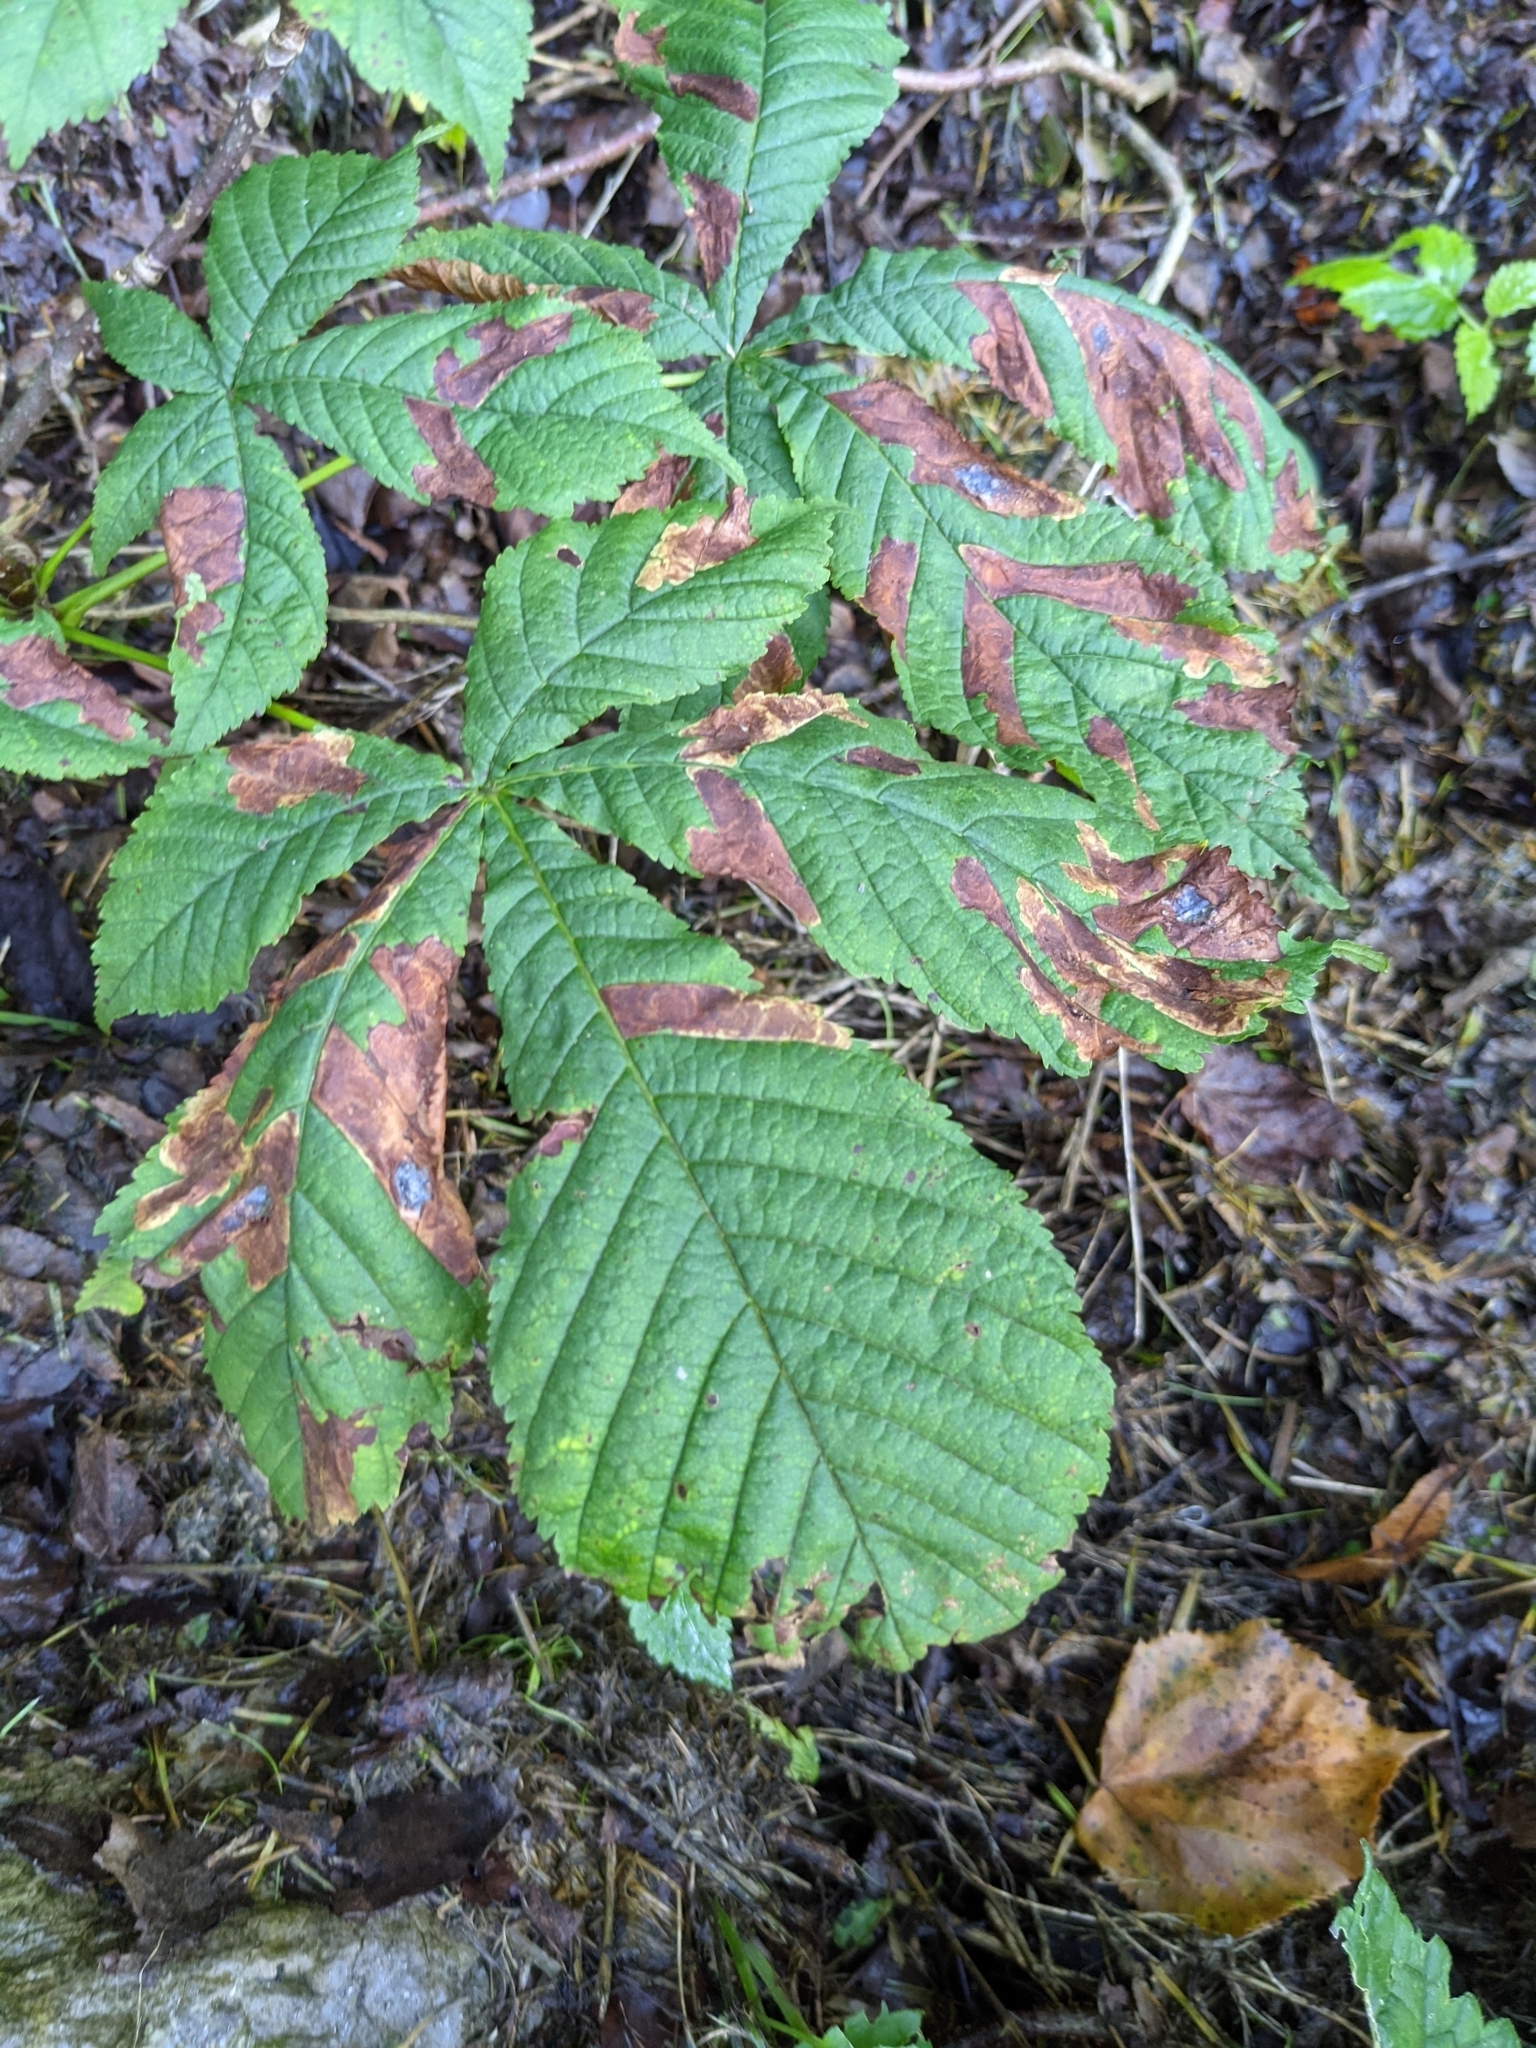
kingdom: Animalia
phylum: Arthropoda
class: Insecta
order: Lepidoptera
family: Gracillariidae
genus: Cameraria
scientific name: Cameraria ohridella
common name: Horse-chestnut leaf-miner
